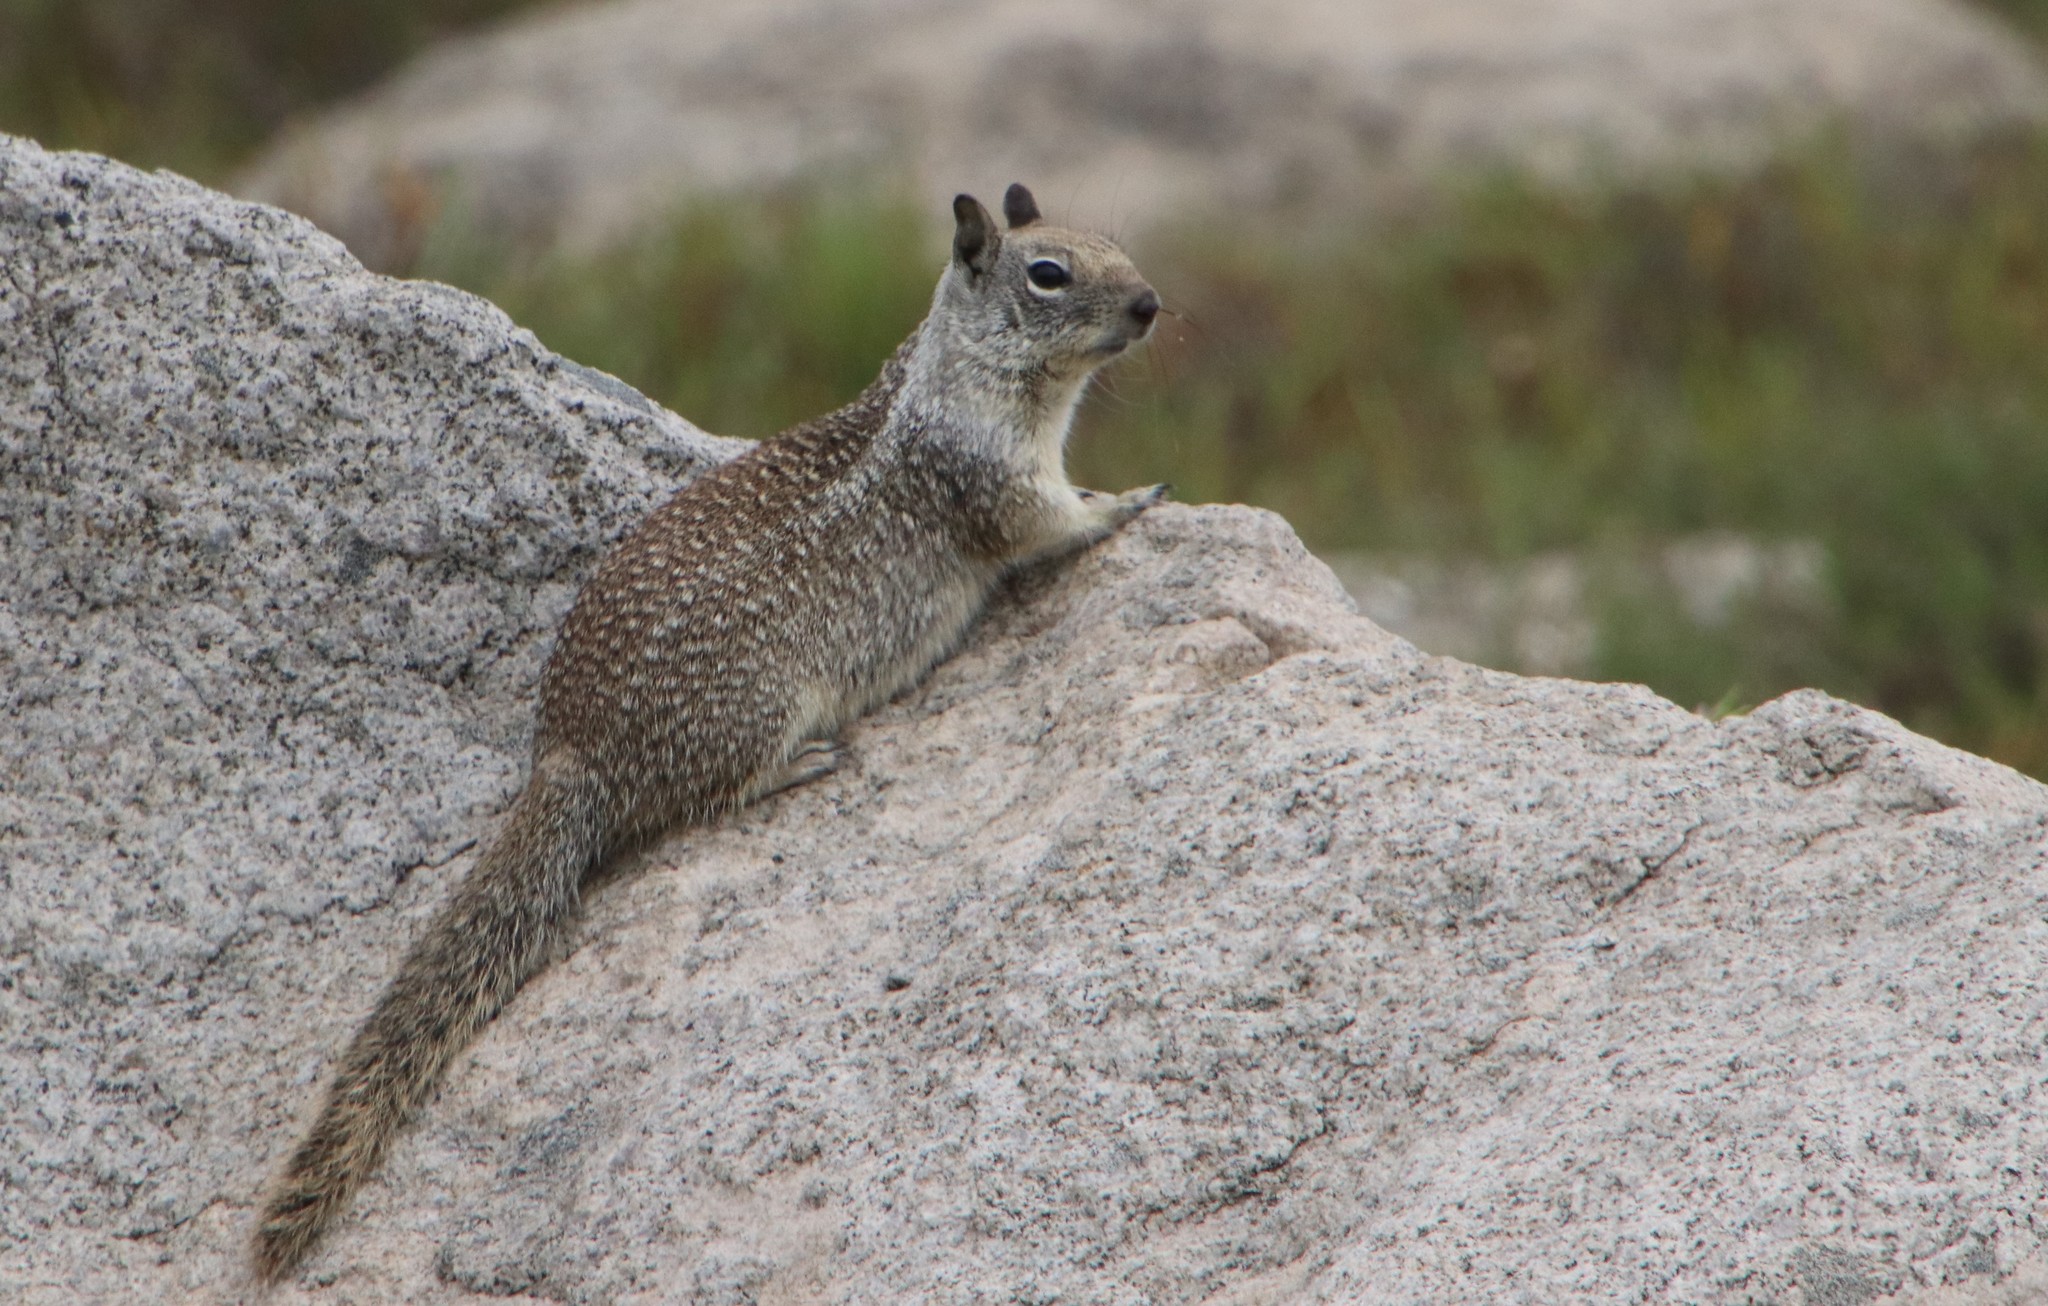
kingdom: Animalia
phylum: Chordata
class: Mammalia
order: Rodentia
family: Sciuridae
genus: Otospermophilus
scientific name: Otospermophilus beecheyi
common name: California ground squirrel
